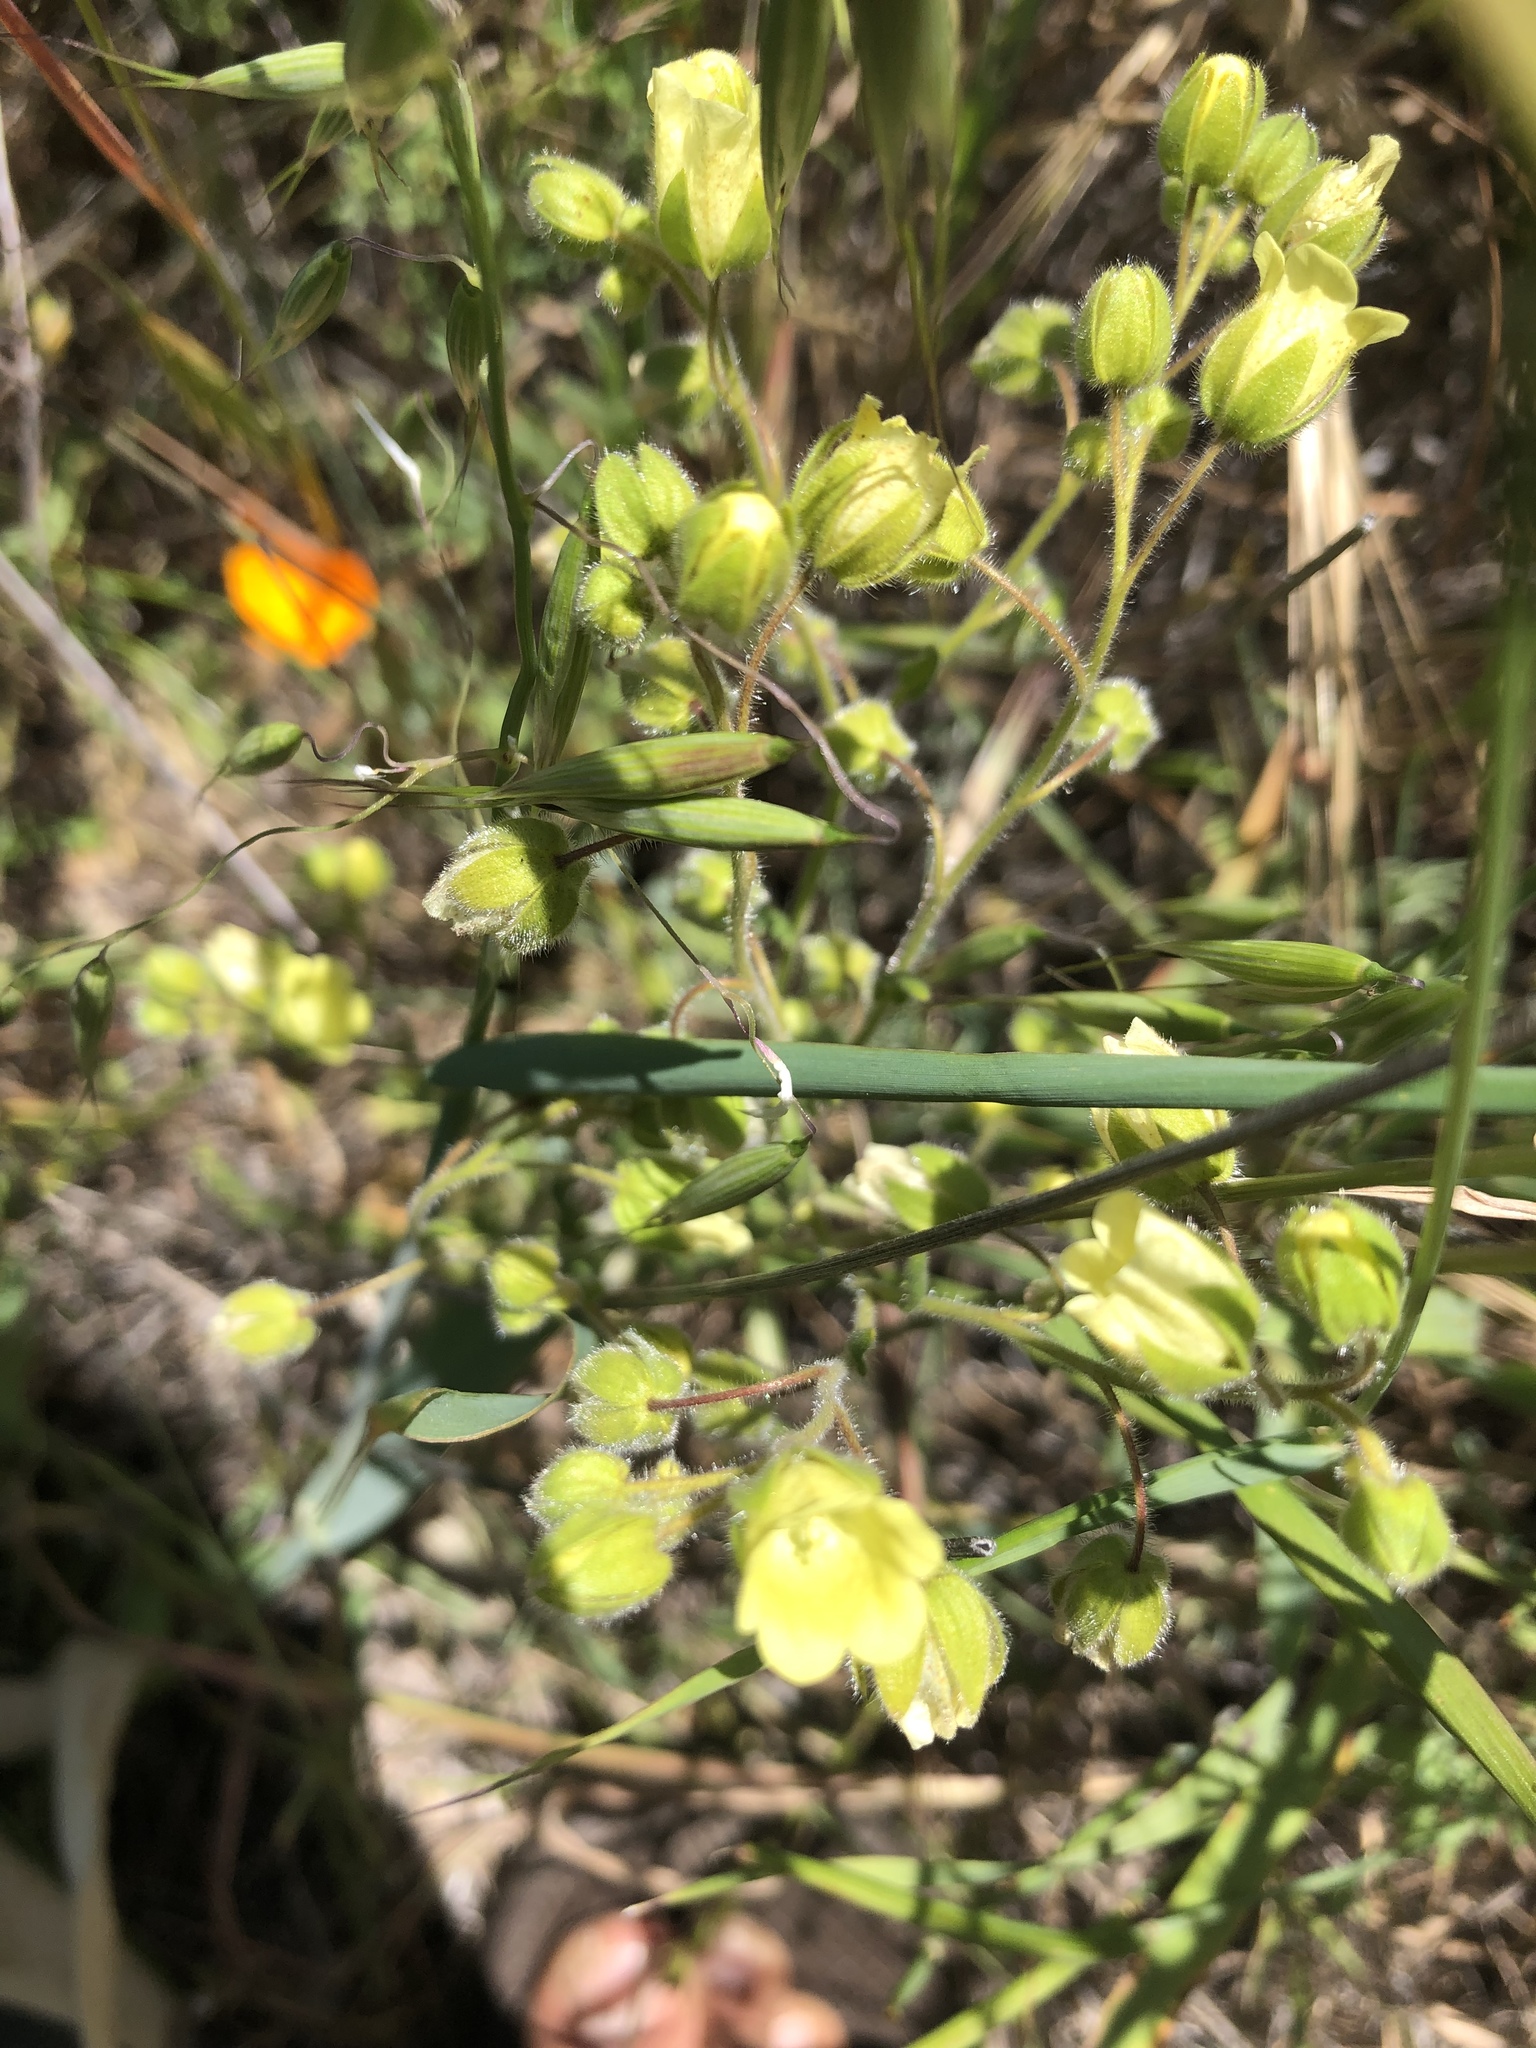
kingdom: Plantae
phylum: Tracheophyta
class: Magnoliopsida
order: Boraginales
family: Hydrophyllaceae
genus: Emmenanthe
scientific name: Emmenanthe penduliflora
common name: Whispering-bells
